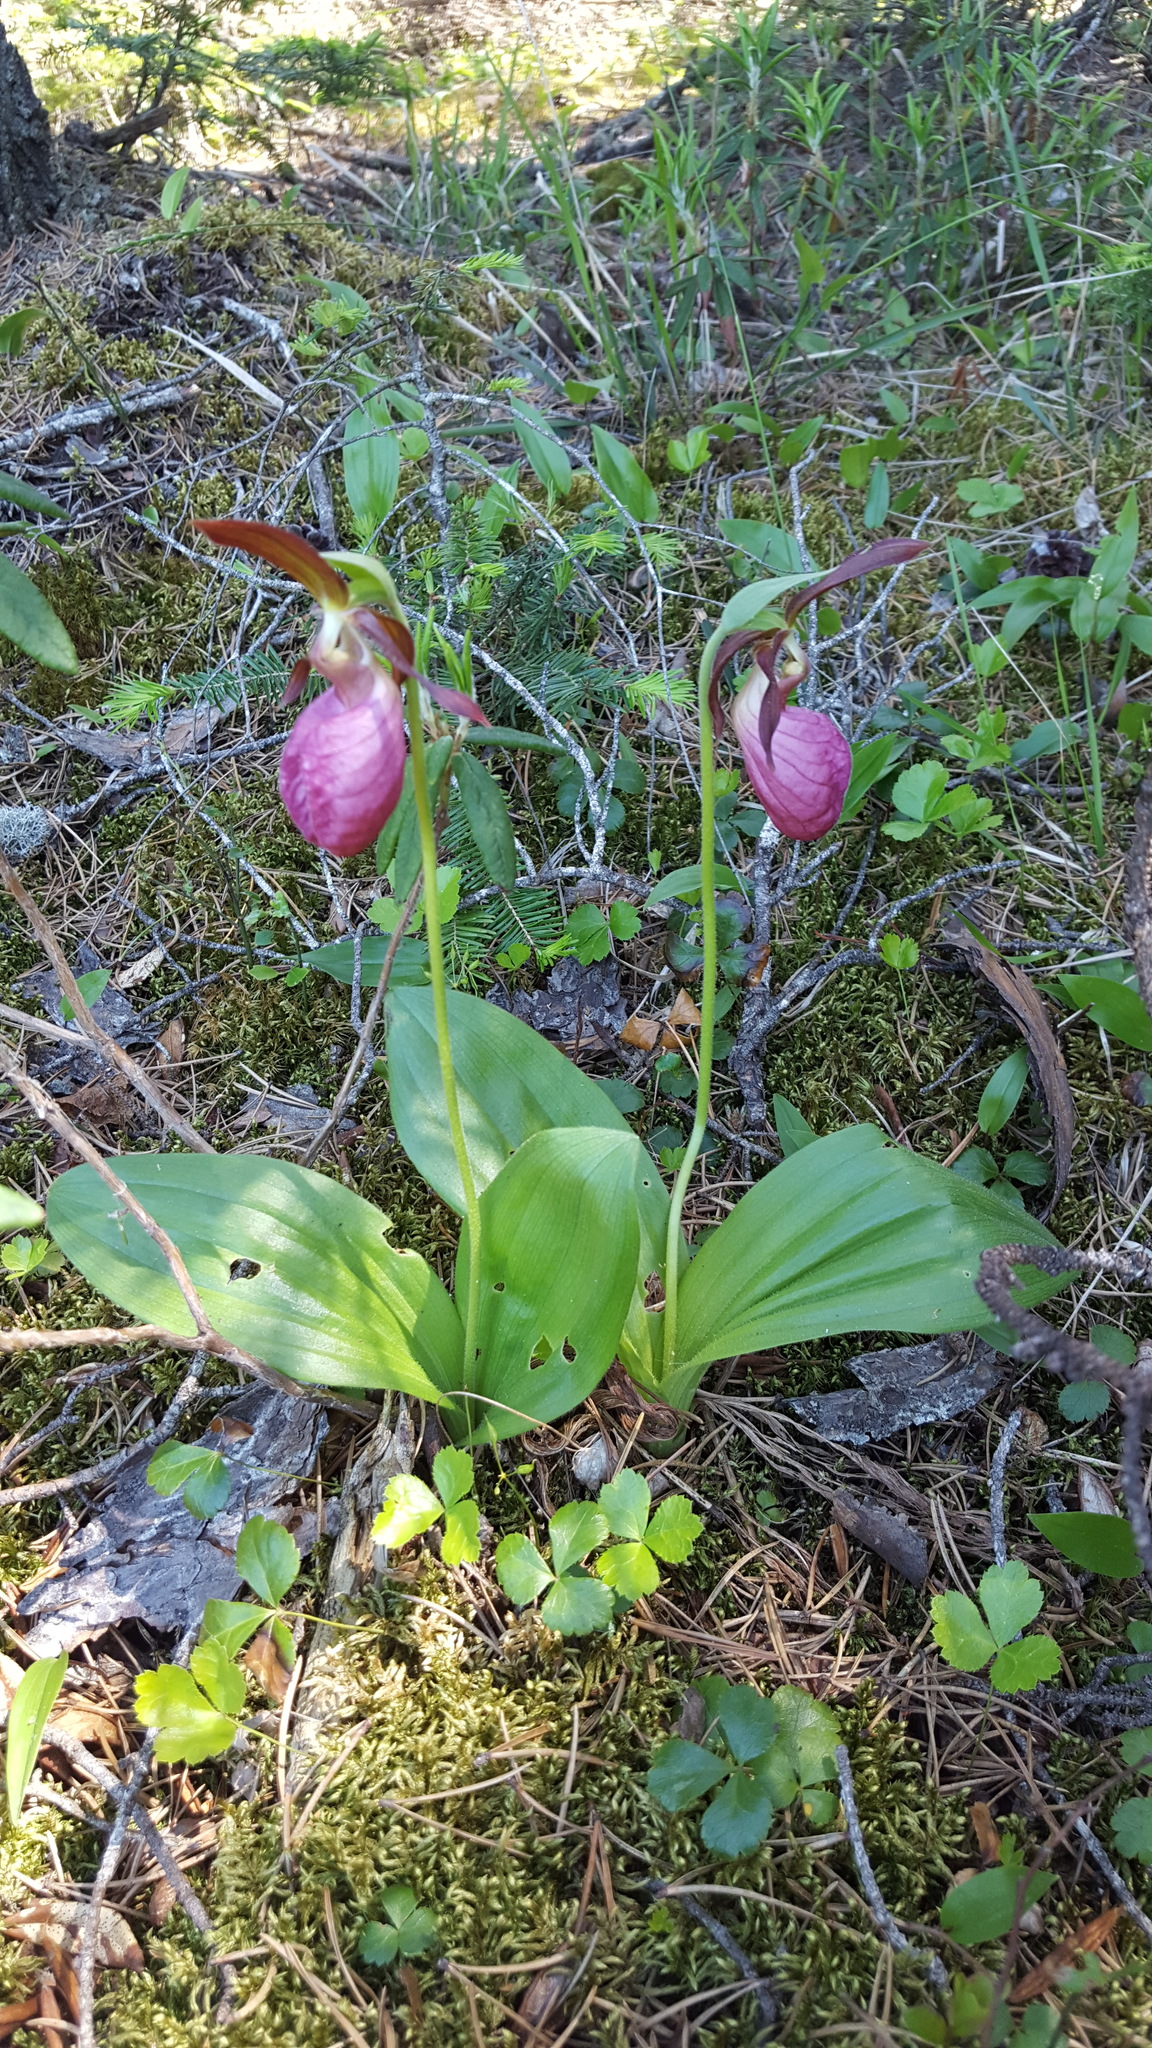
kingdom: Plantae
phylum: Tracheophyta
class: Liliopsida
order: Asparagales
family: Orchidaceae
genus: Cypripedium
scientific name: Cypripedium acaule
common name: Pink lady's-slipper
